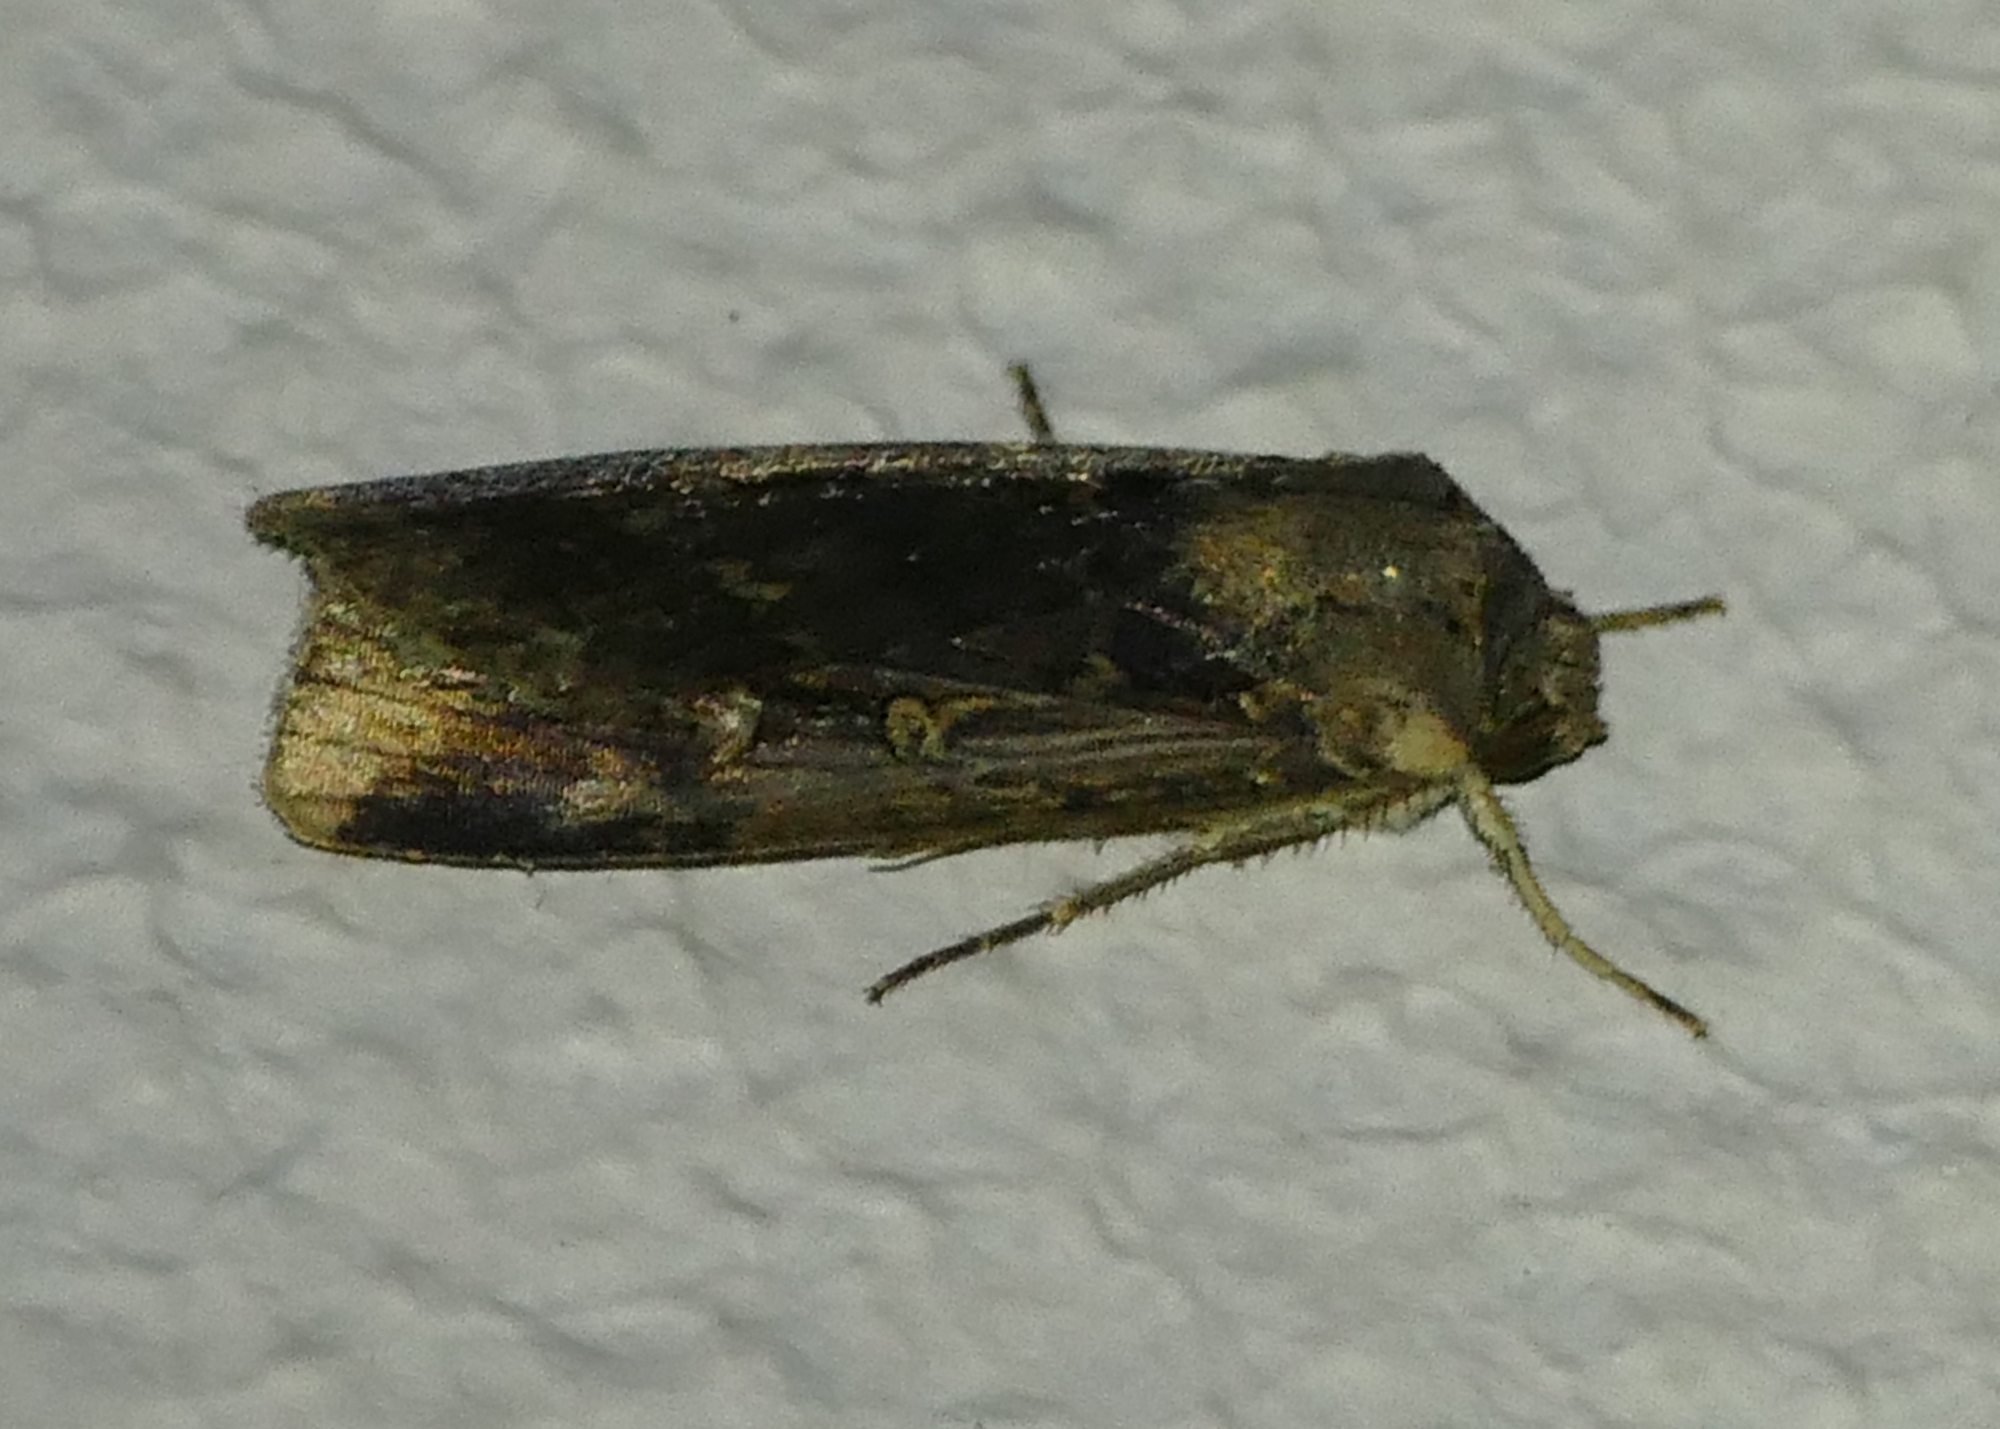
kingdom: Animalia
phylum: Arthropoda
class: Insecta
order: Lepidoptera
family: Noctuidae
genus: Feltia
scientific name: Feltia subterranea
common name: Granulate cutworm
